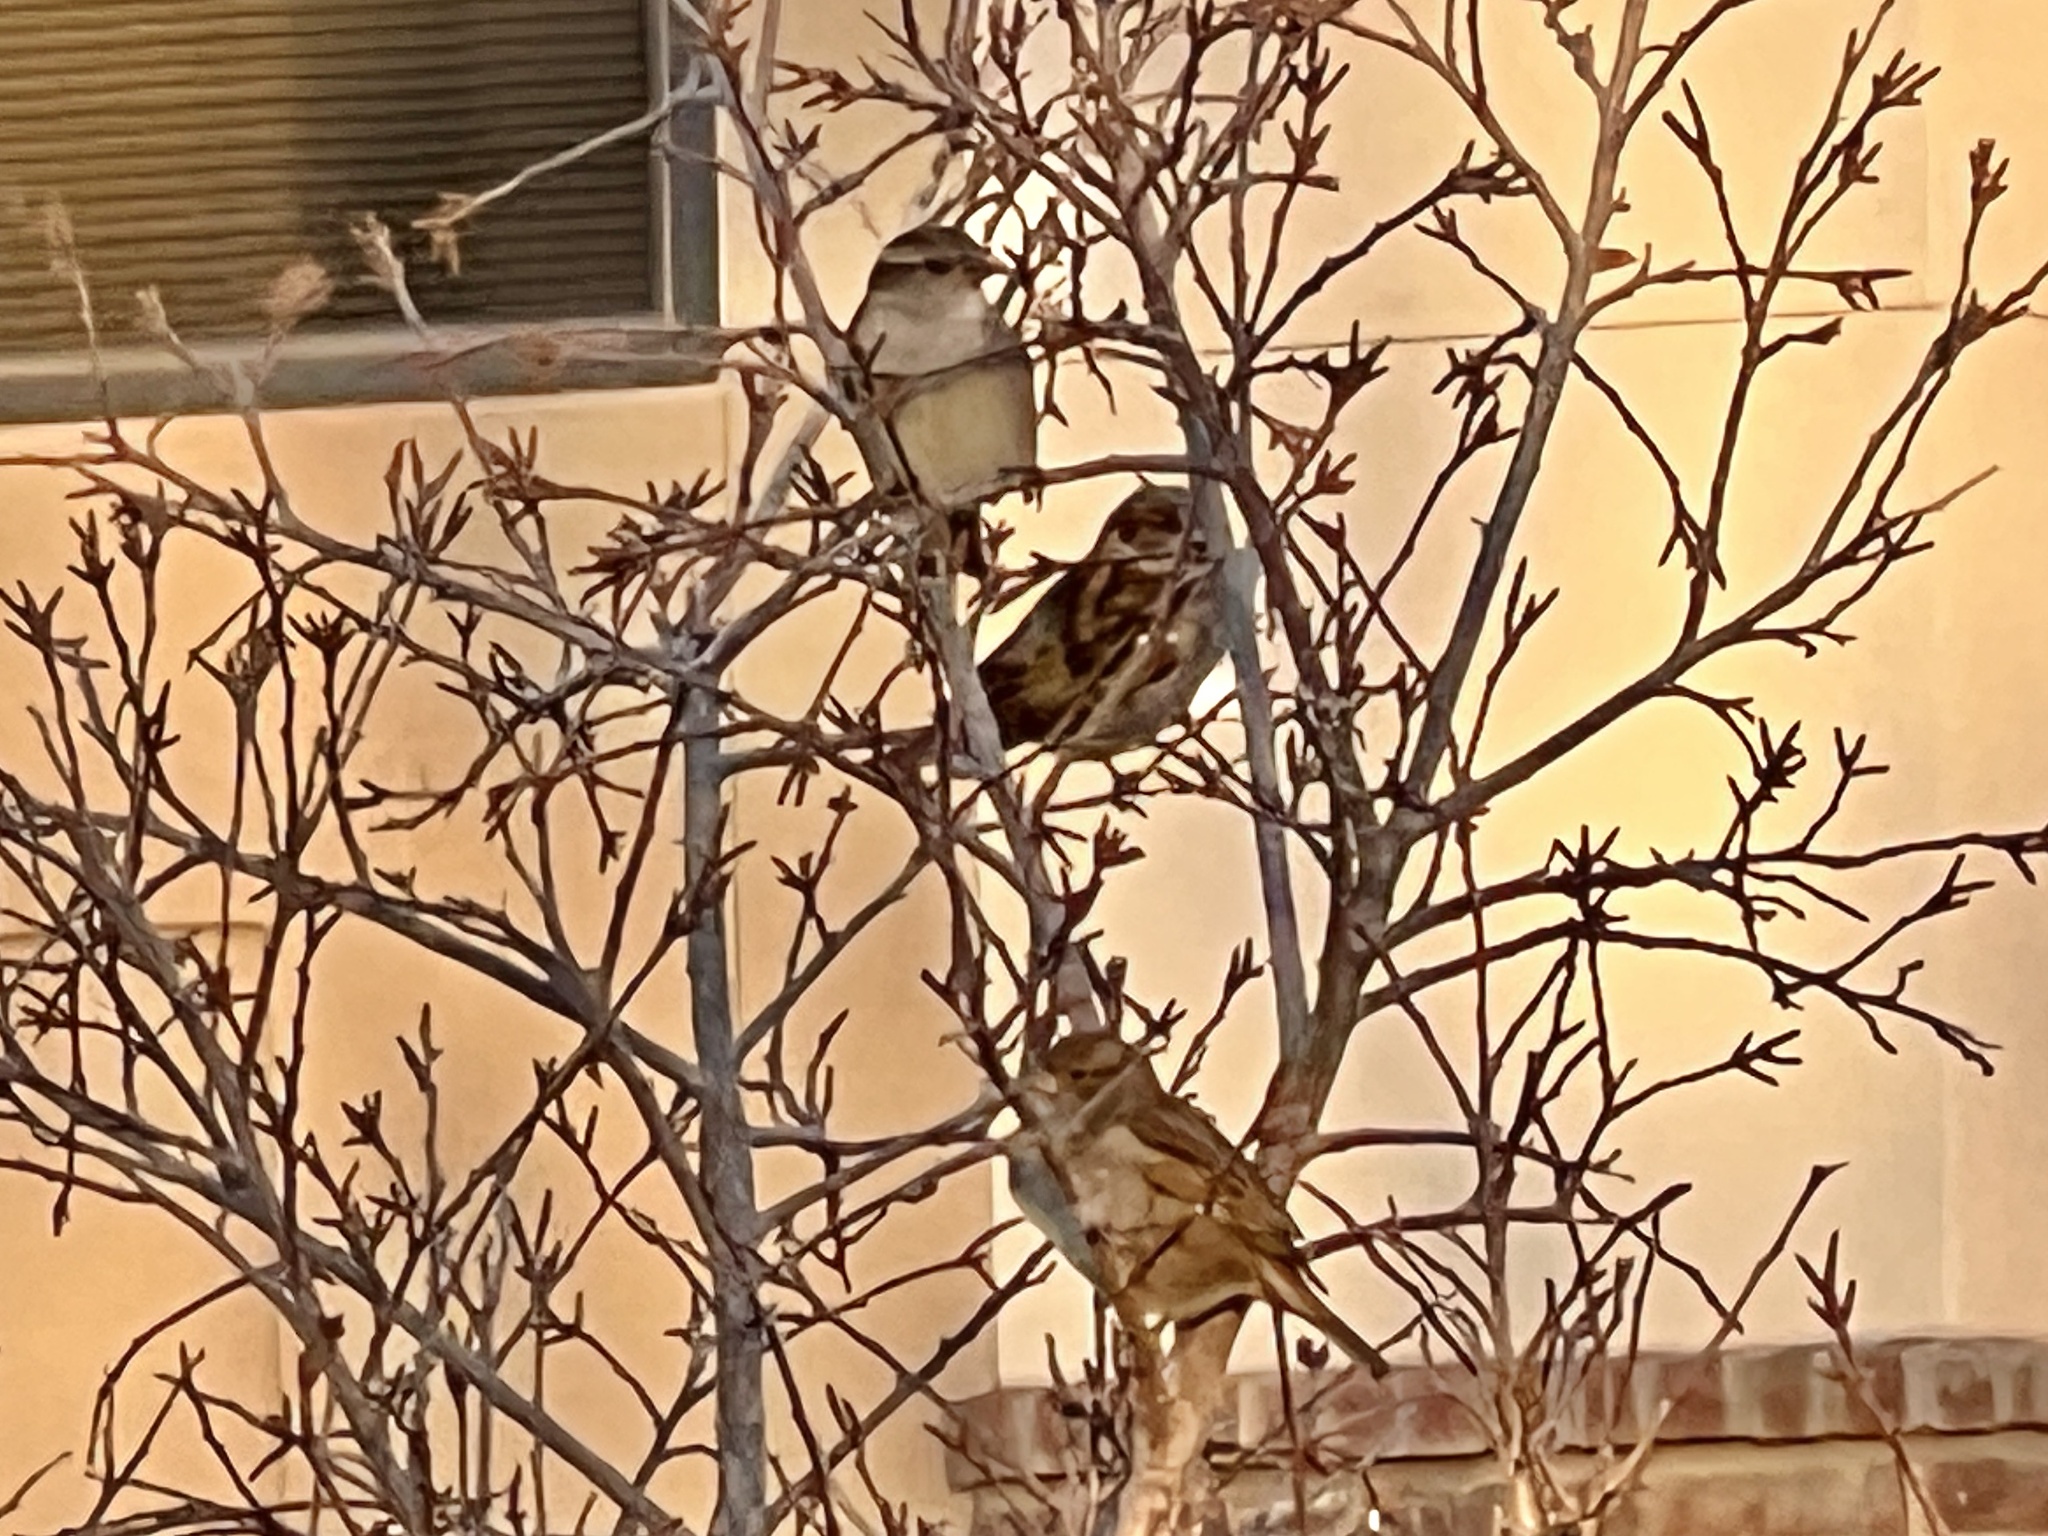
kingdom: Animalia
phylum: Chordata
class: Aves
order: Passeriformes
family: Passeridae
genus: Passer
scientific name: Passer domesticus
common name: House sparrow
